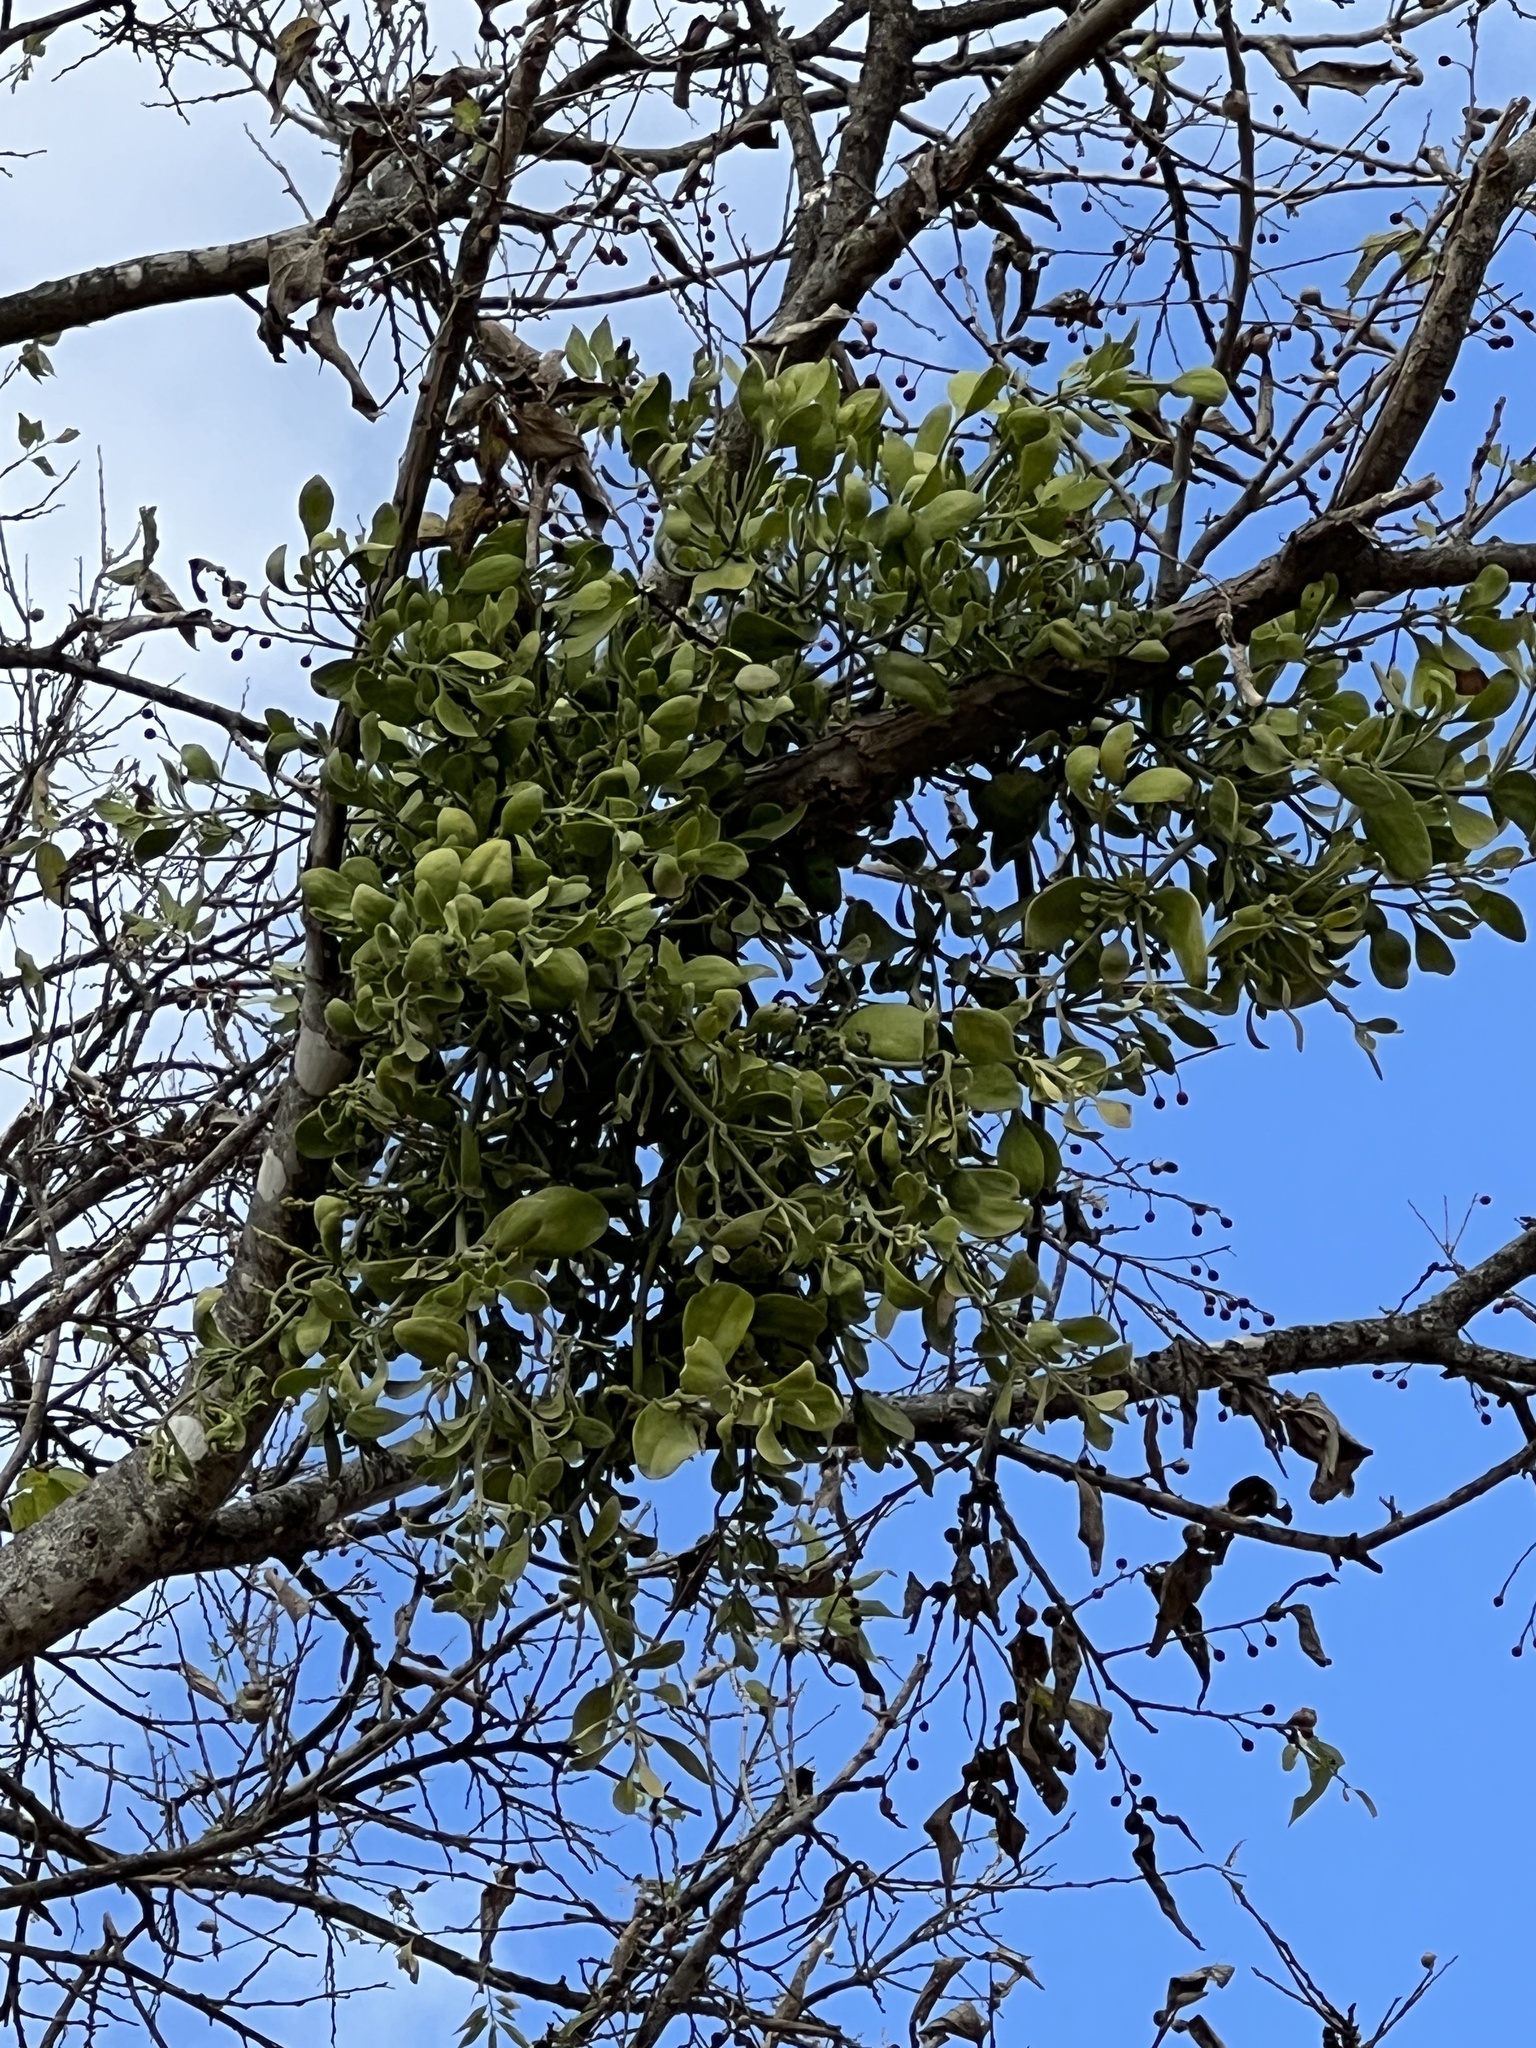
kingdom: Plantae
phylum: Tracheophyta
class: Magnoliopsida
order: Santalales
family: Viscaceae
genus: Phoradendron
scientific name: Phoradendron leucarpum
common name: Pacific mistletoe
